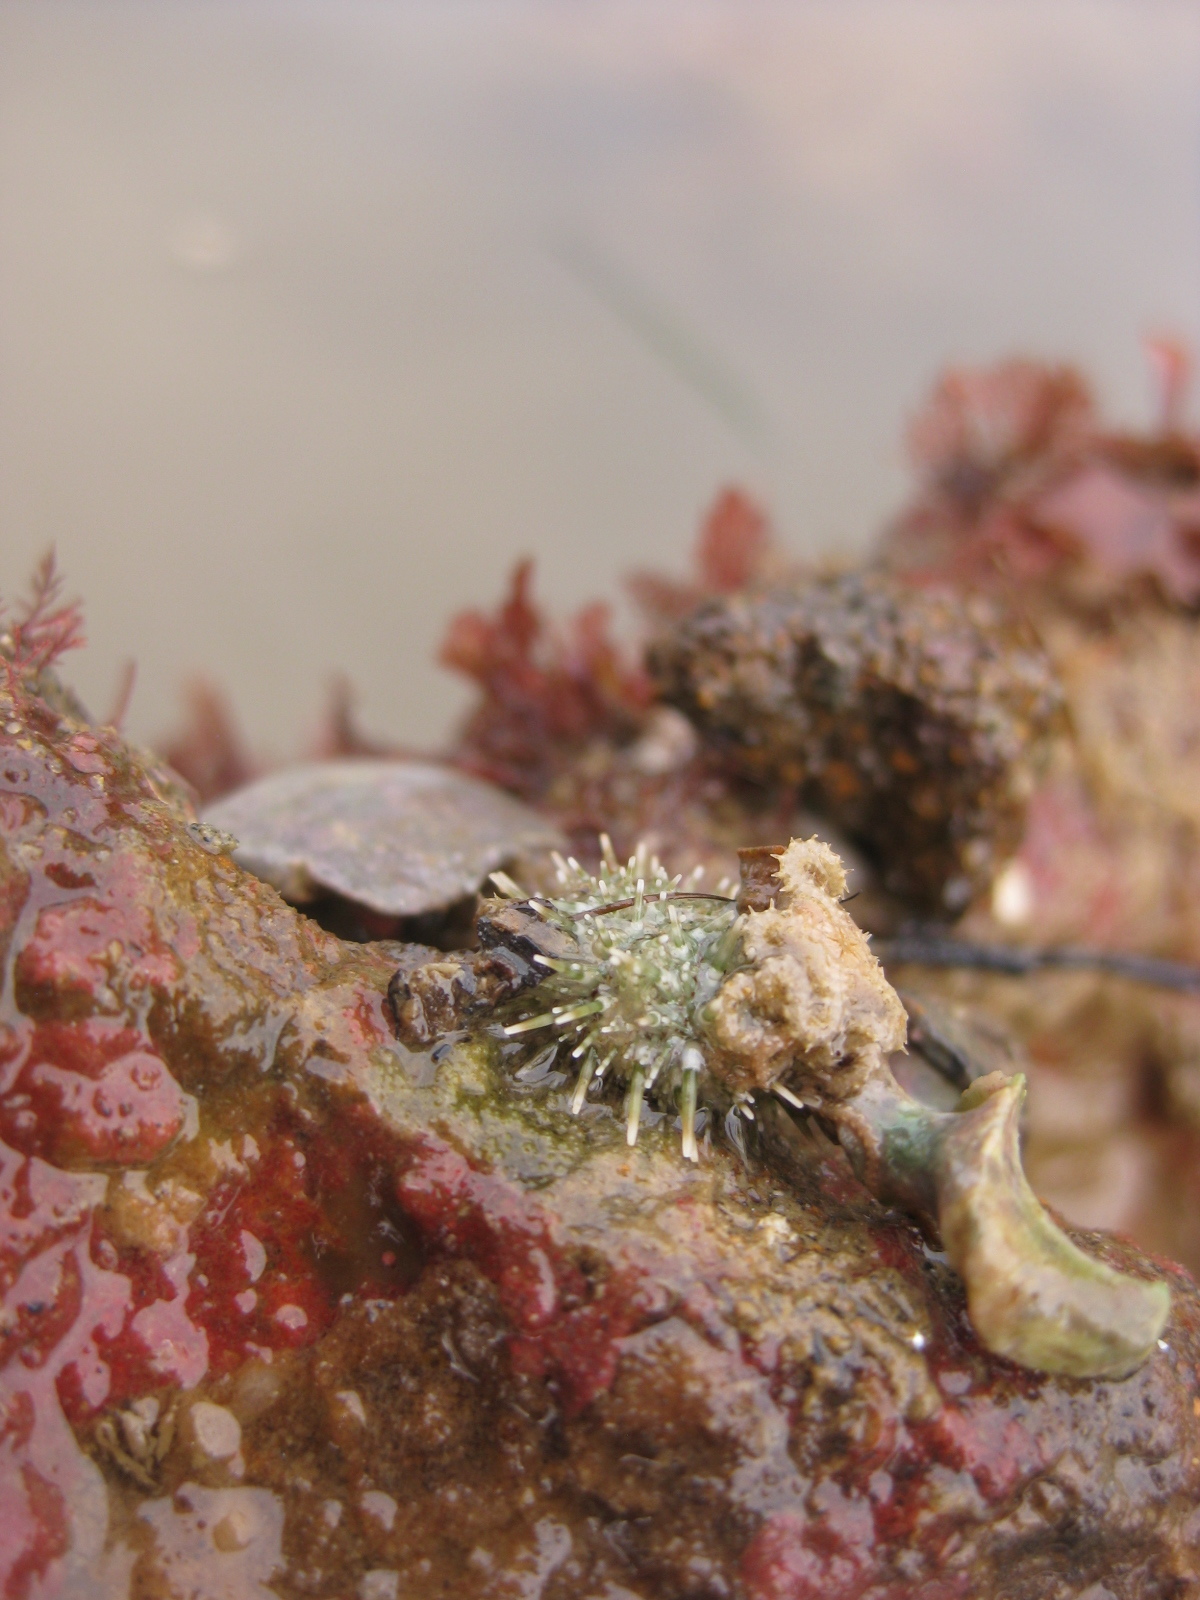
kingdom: Animalia
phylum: Echinodermata
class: Echinoidea
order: Camarodonta
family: Echinometridae
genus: Evechinus
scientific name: Evechinus chloroticus
